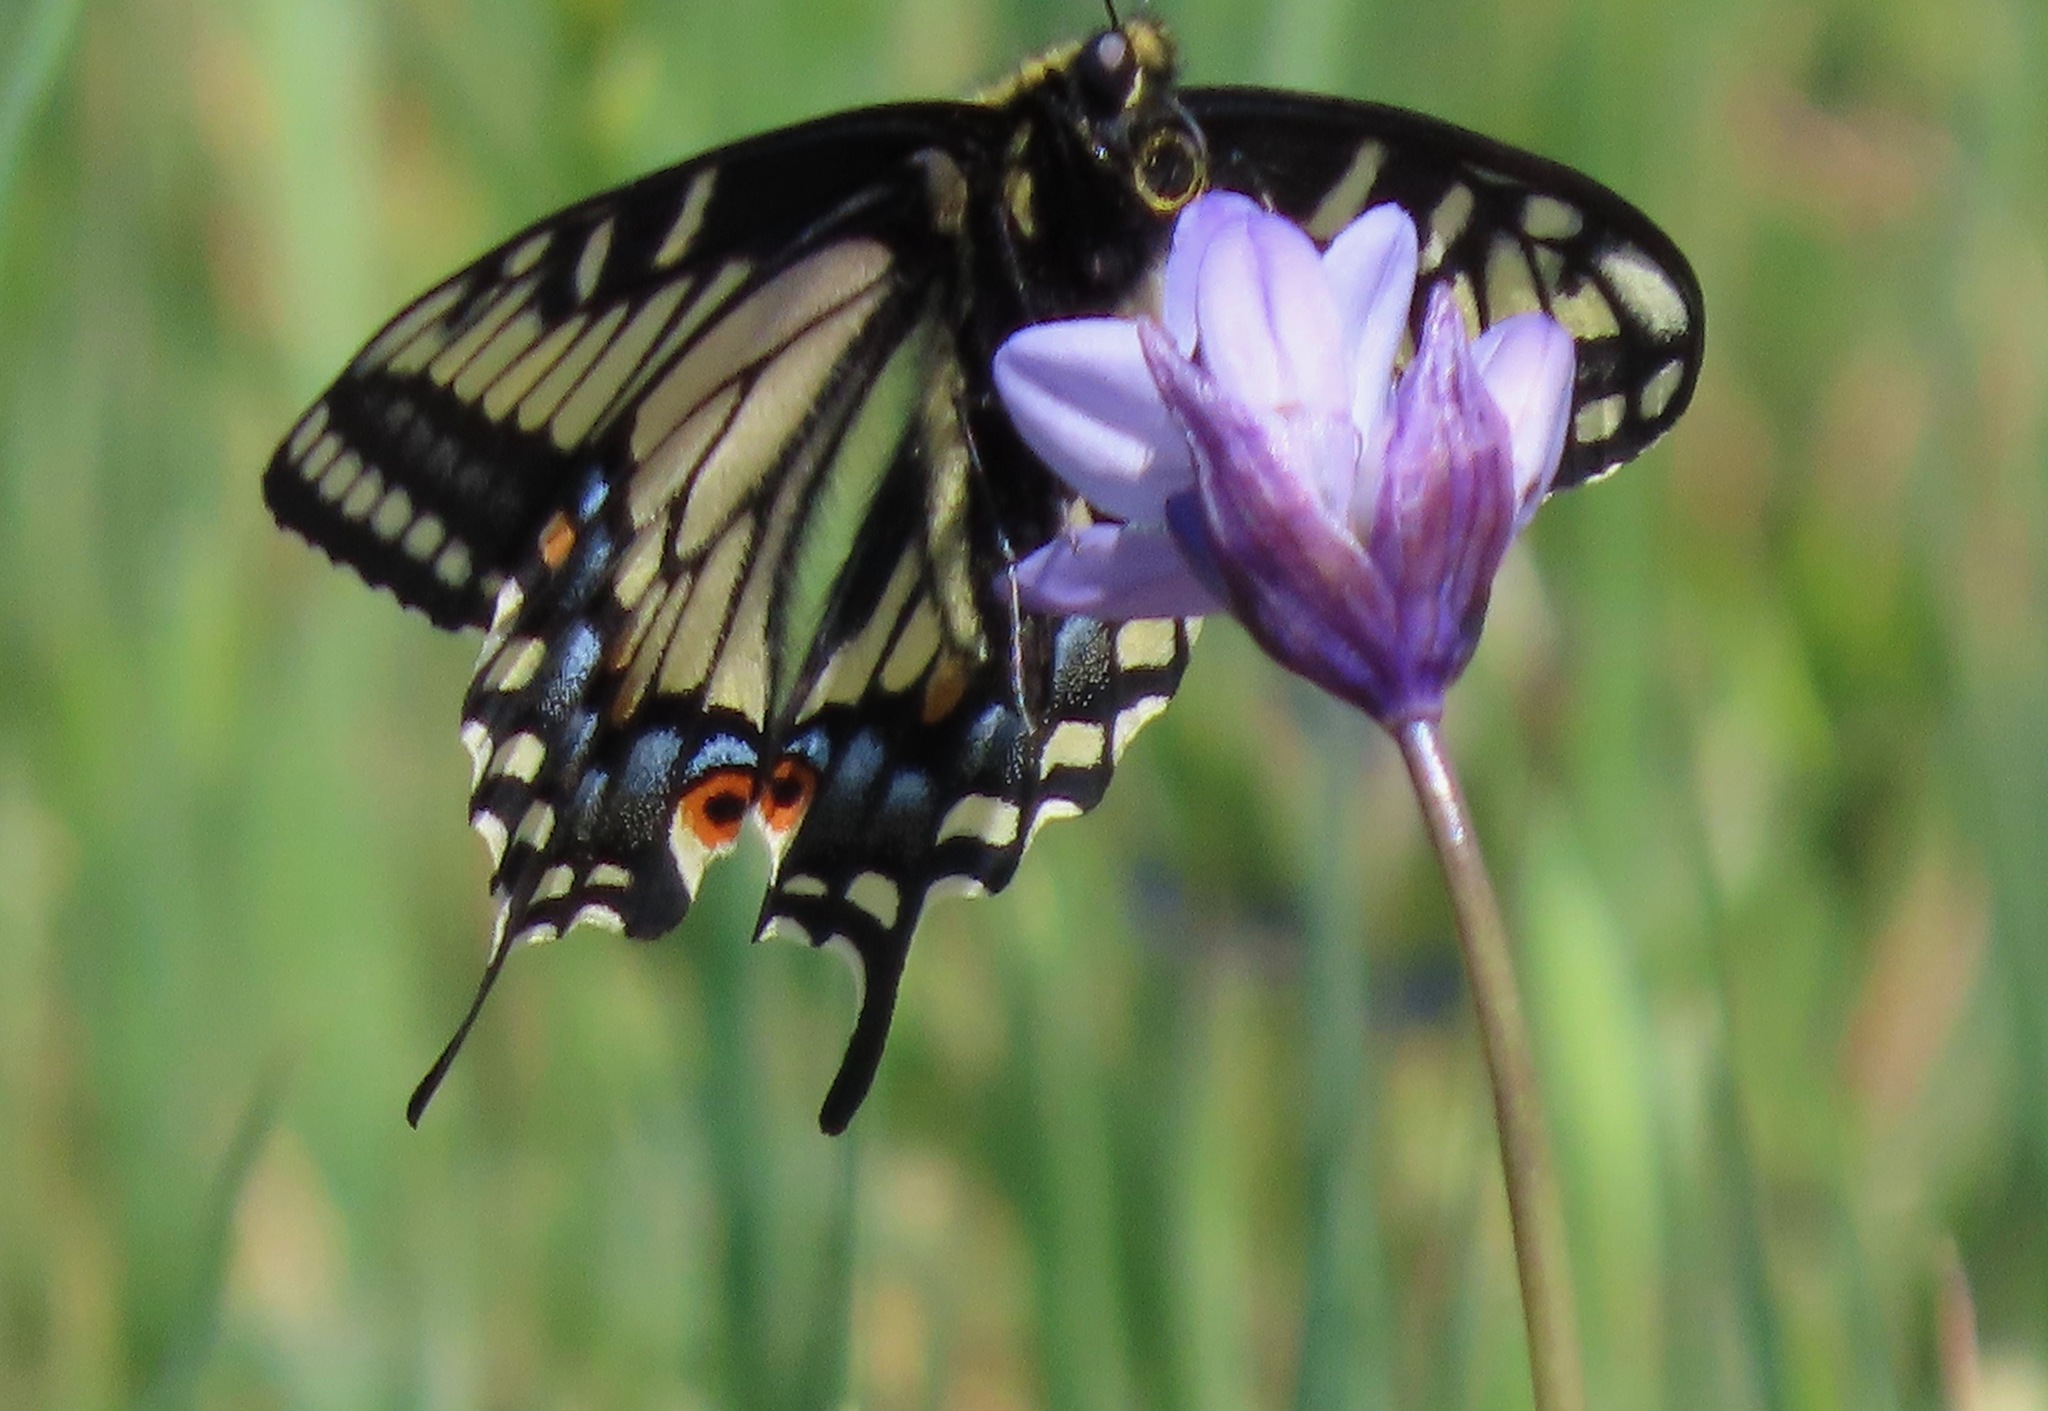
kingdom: Animalia
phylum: Arthropoda
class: Insecta
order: Lepidoptera
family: Papilionidae
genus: Papilio
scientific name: Papilio zelicaon
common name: Anise swallowtail
